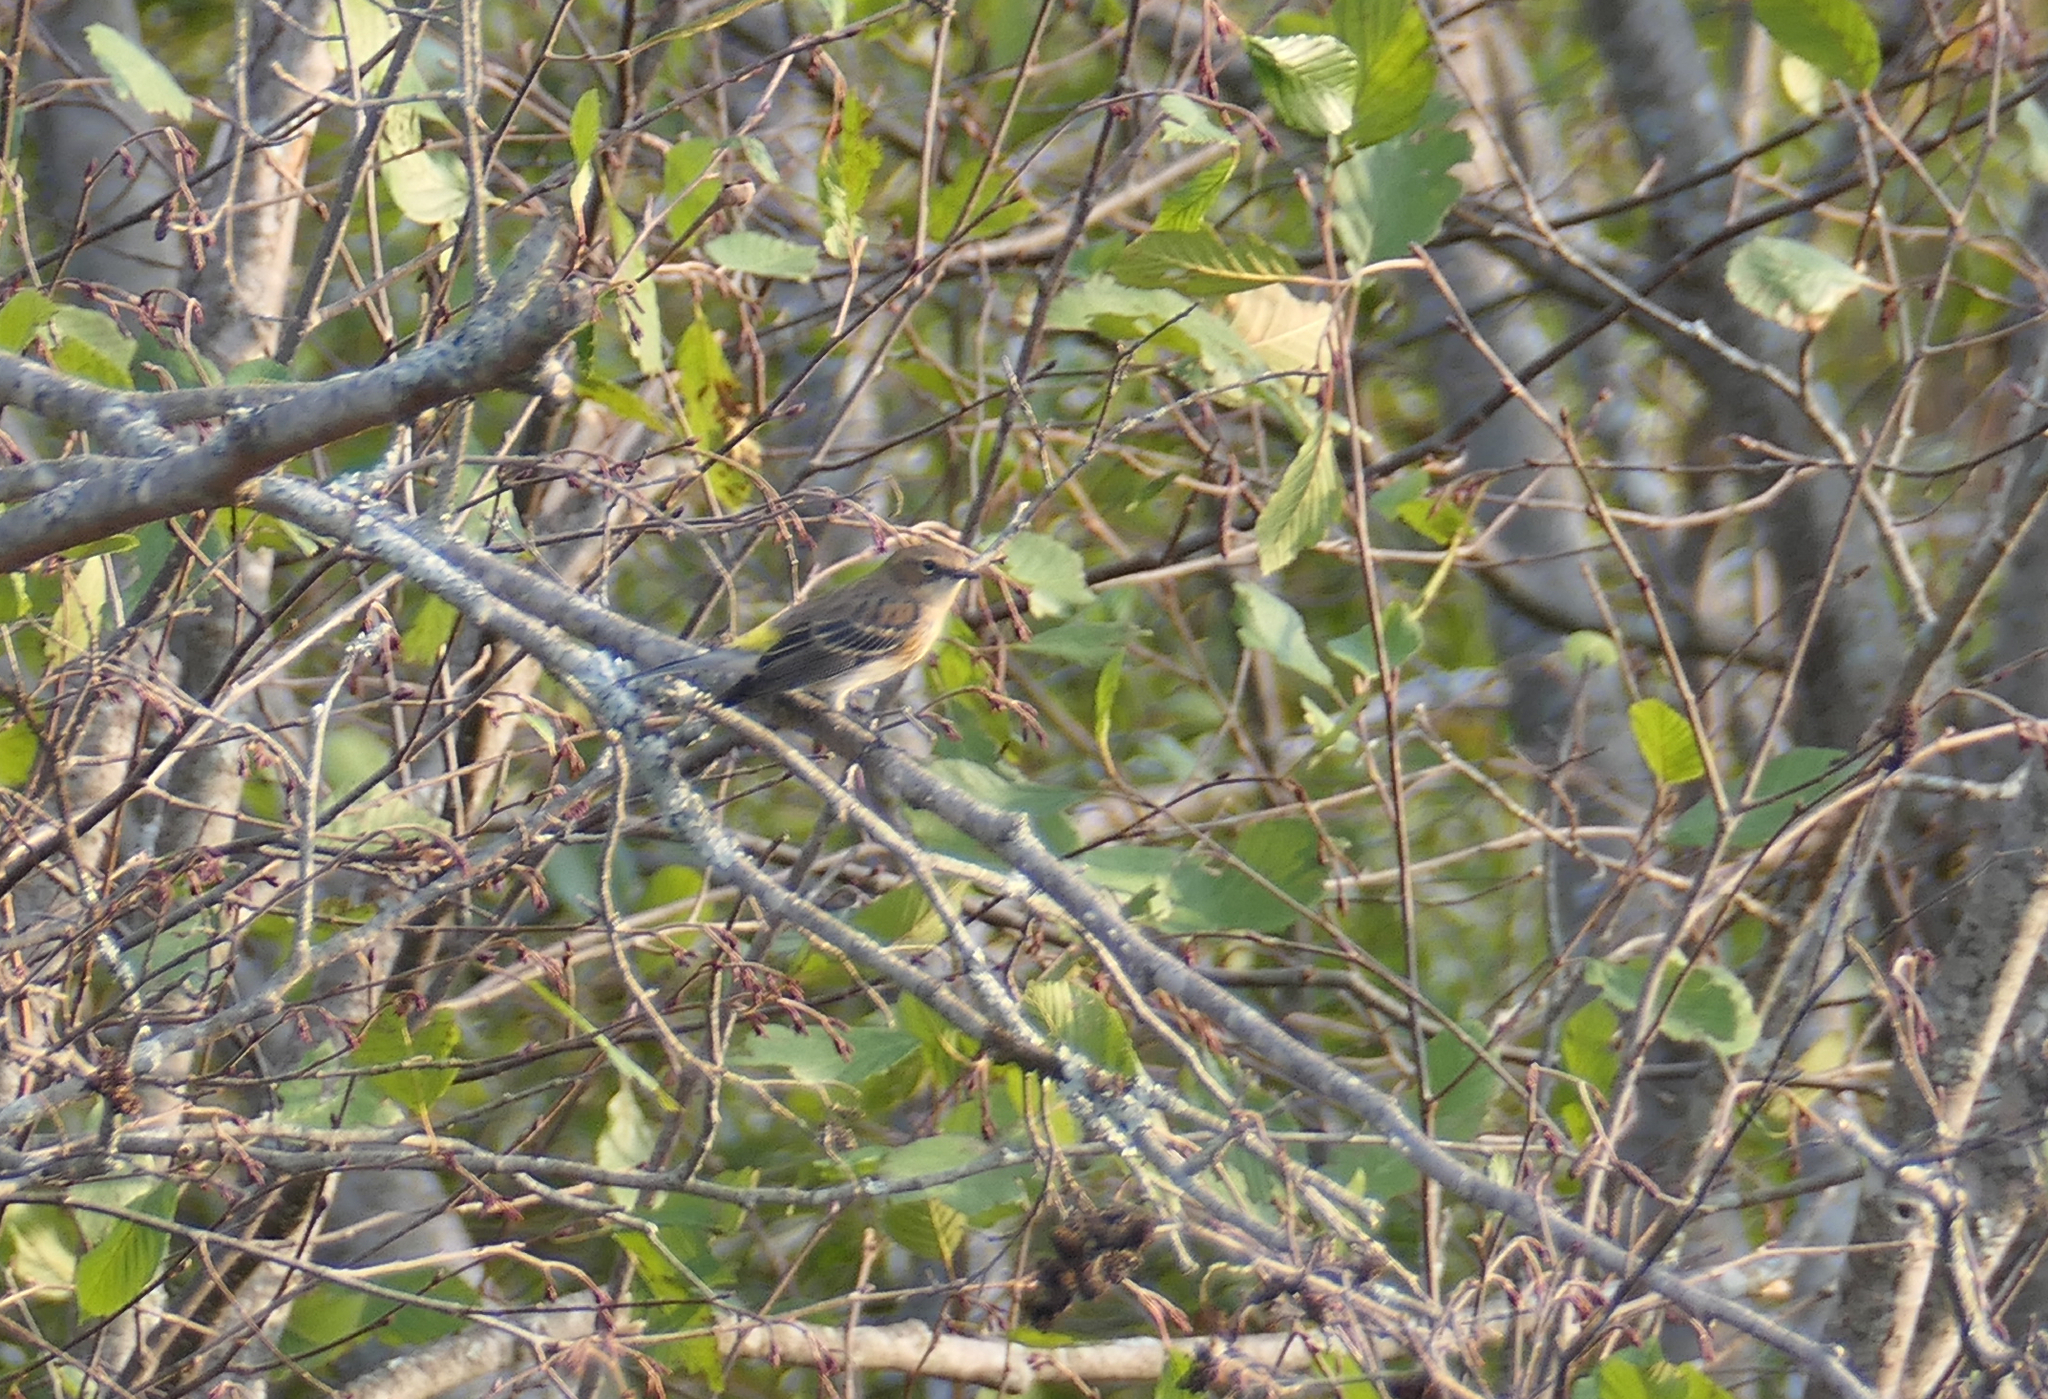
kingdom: Animalia
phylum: Chordata
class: Aves
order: Passeriformes
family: Parulidae
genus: Setophaga
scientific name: Setophaga coronata
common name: Myrtle warbler
